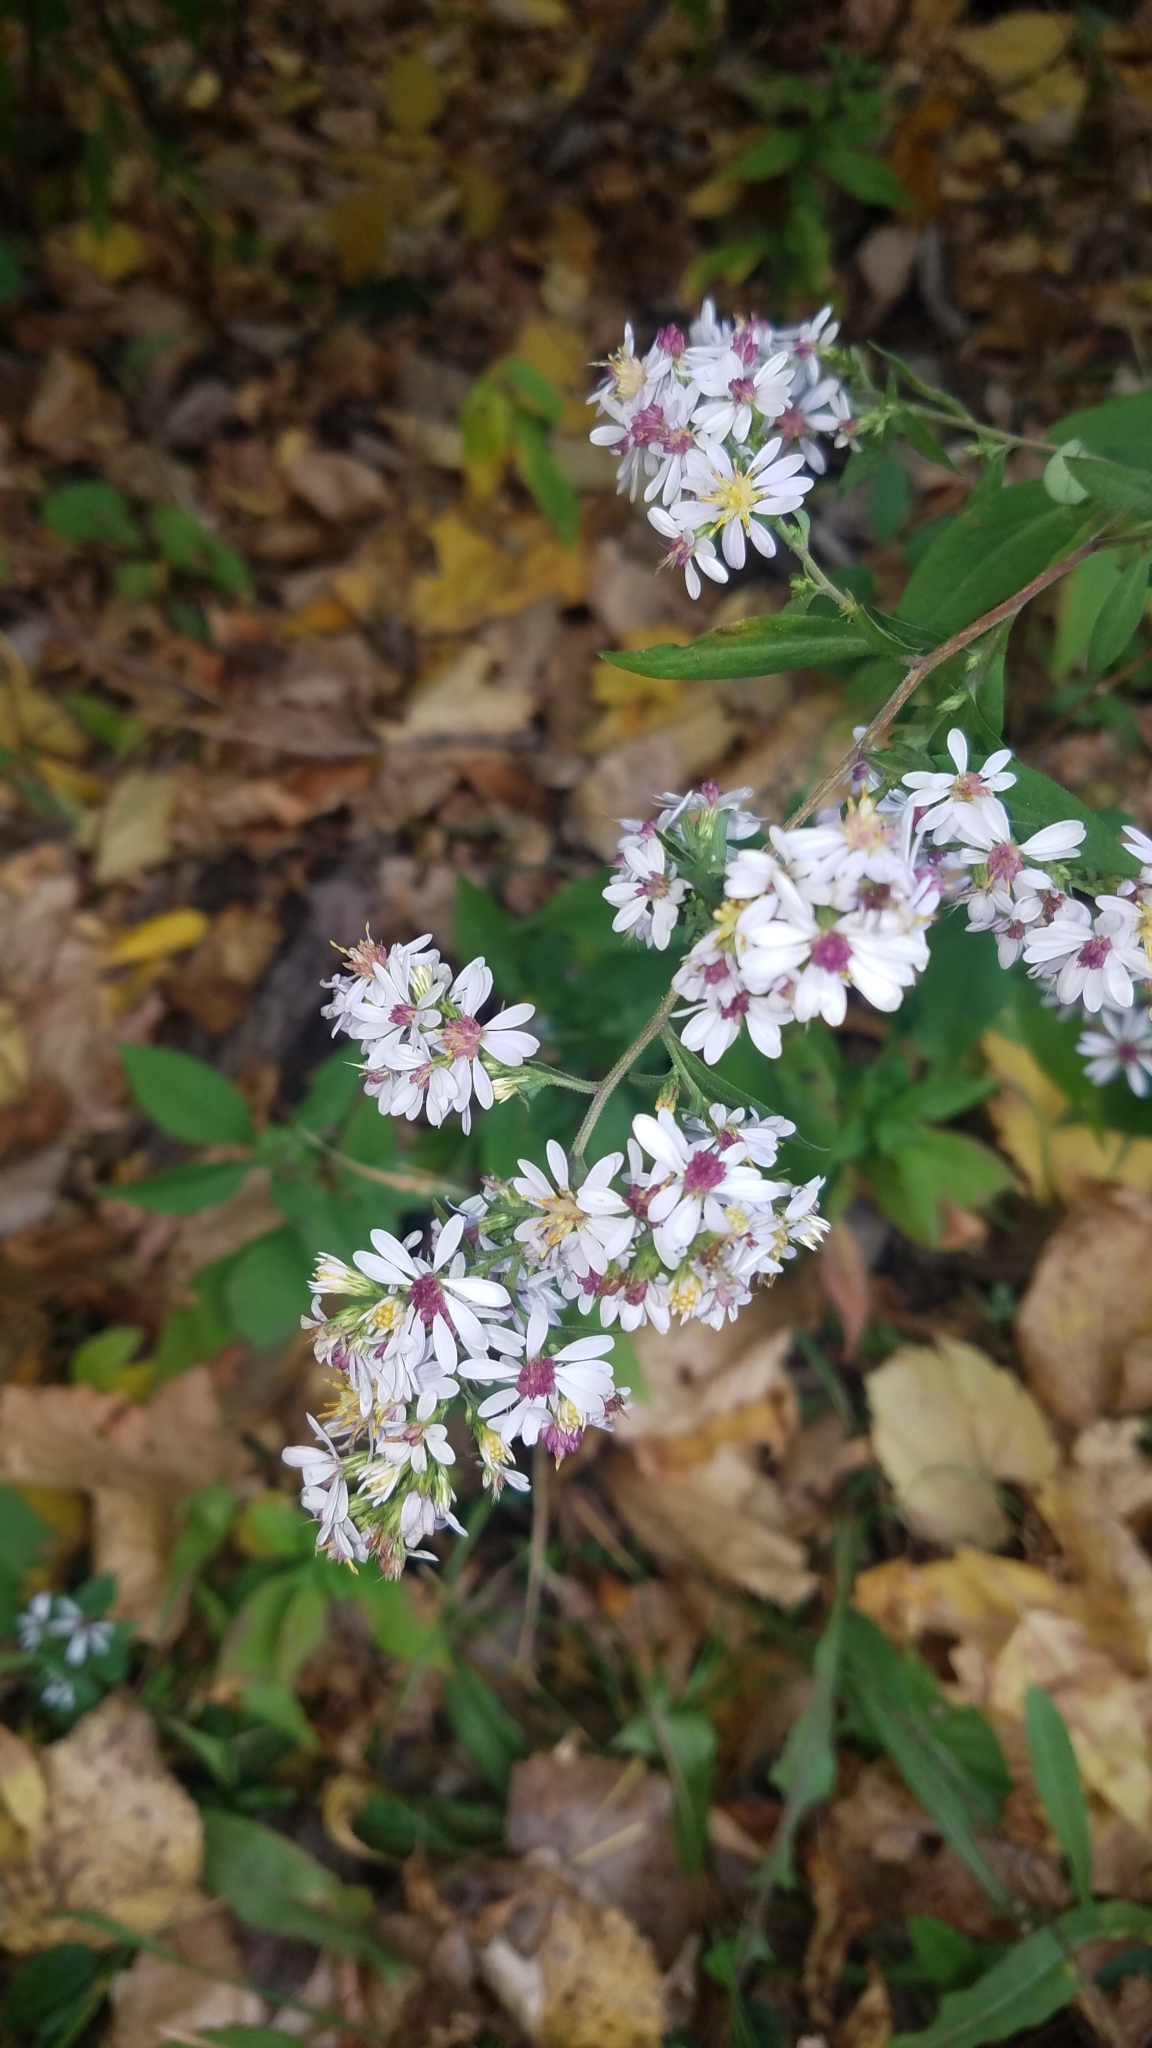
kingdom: Plantae
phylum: Tracheophyta
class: Magnoliopsida
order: Asterales
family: Asteraceae
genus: Symphyotrichum
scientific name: Symphyotrichum urophyllum
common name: Arrow-leaved aster
